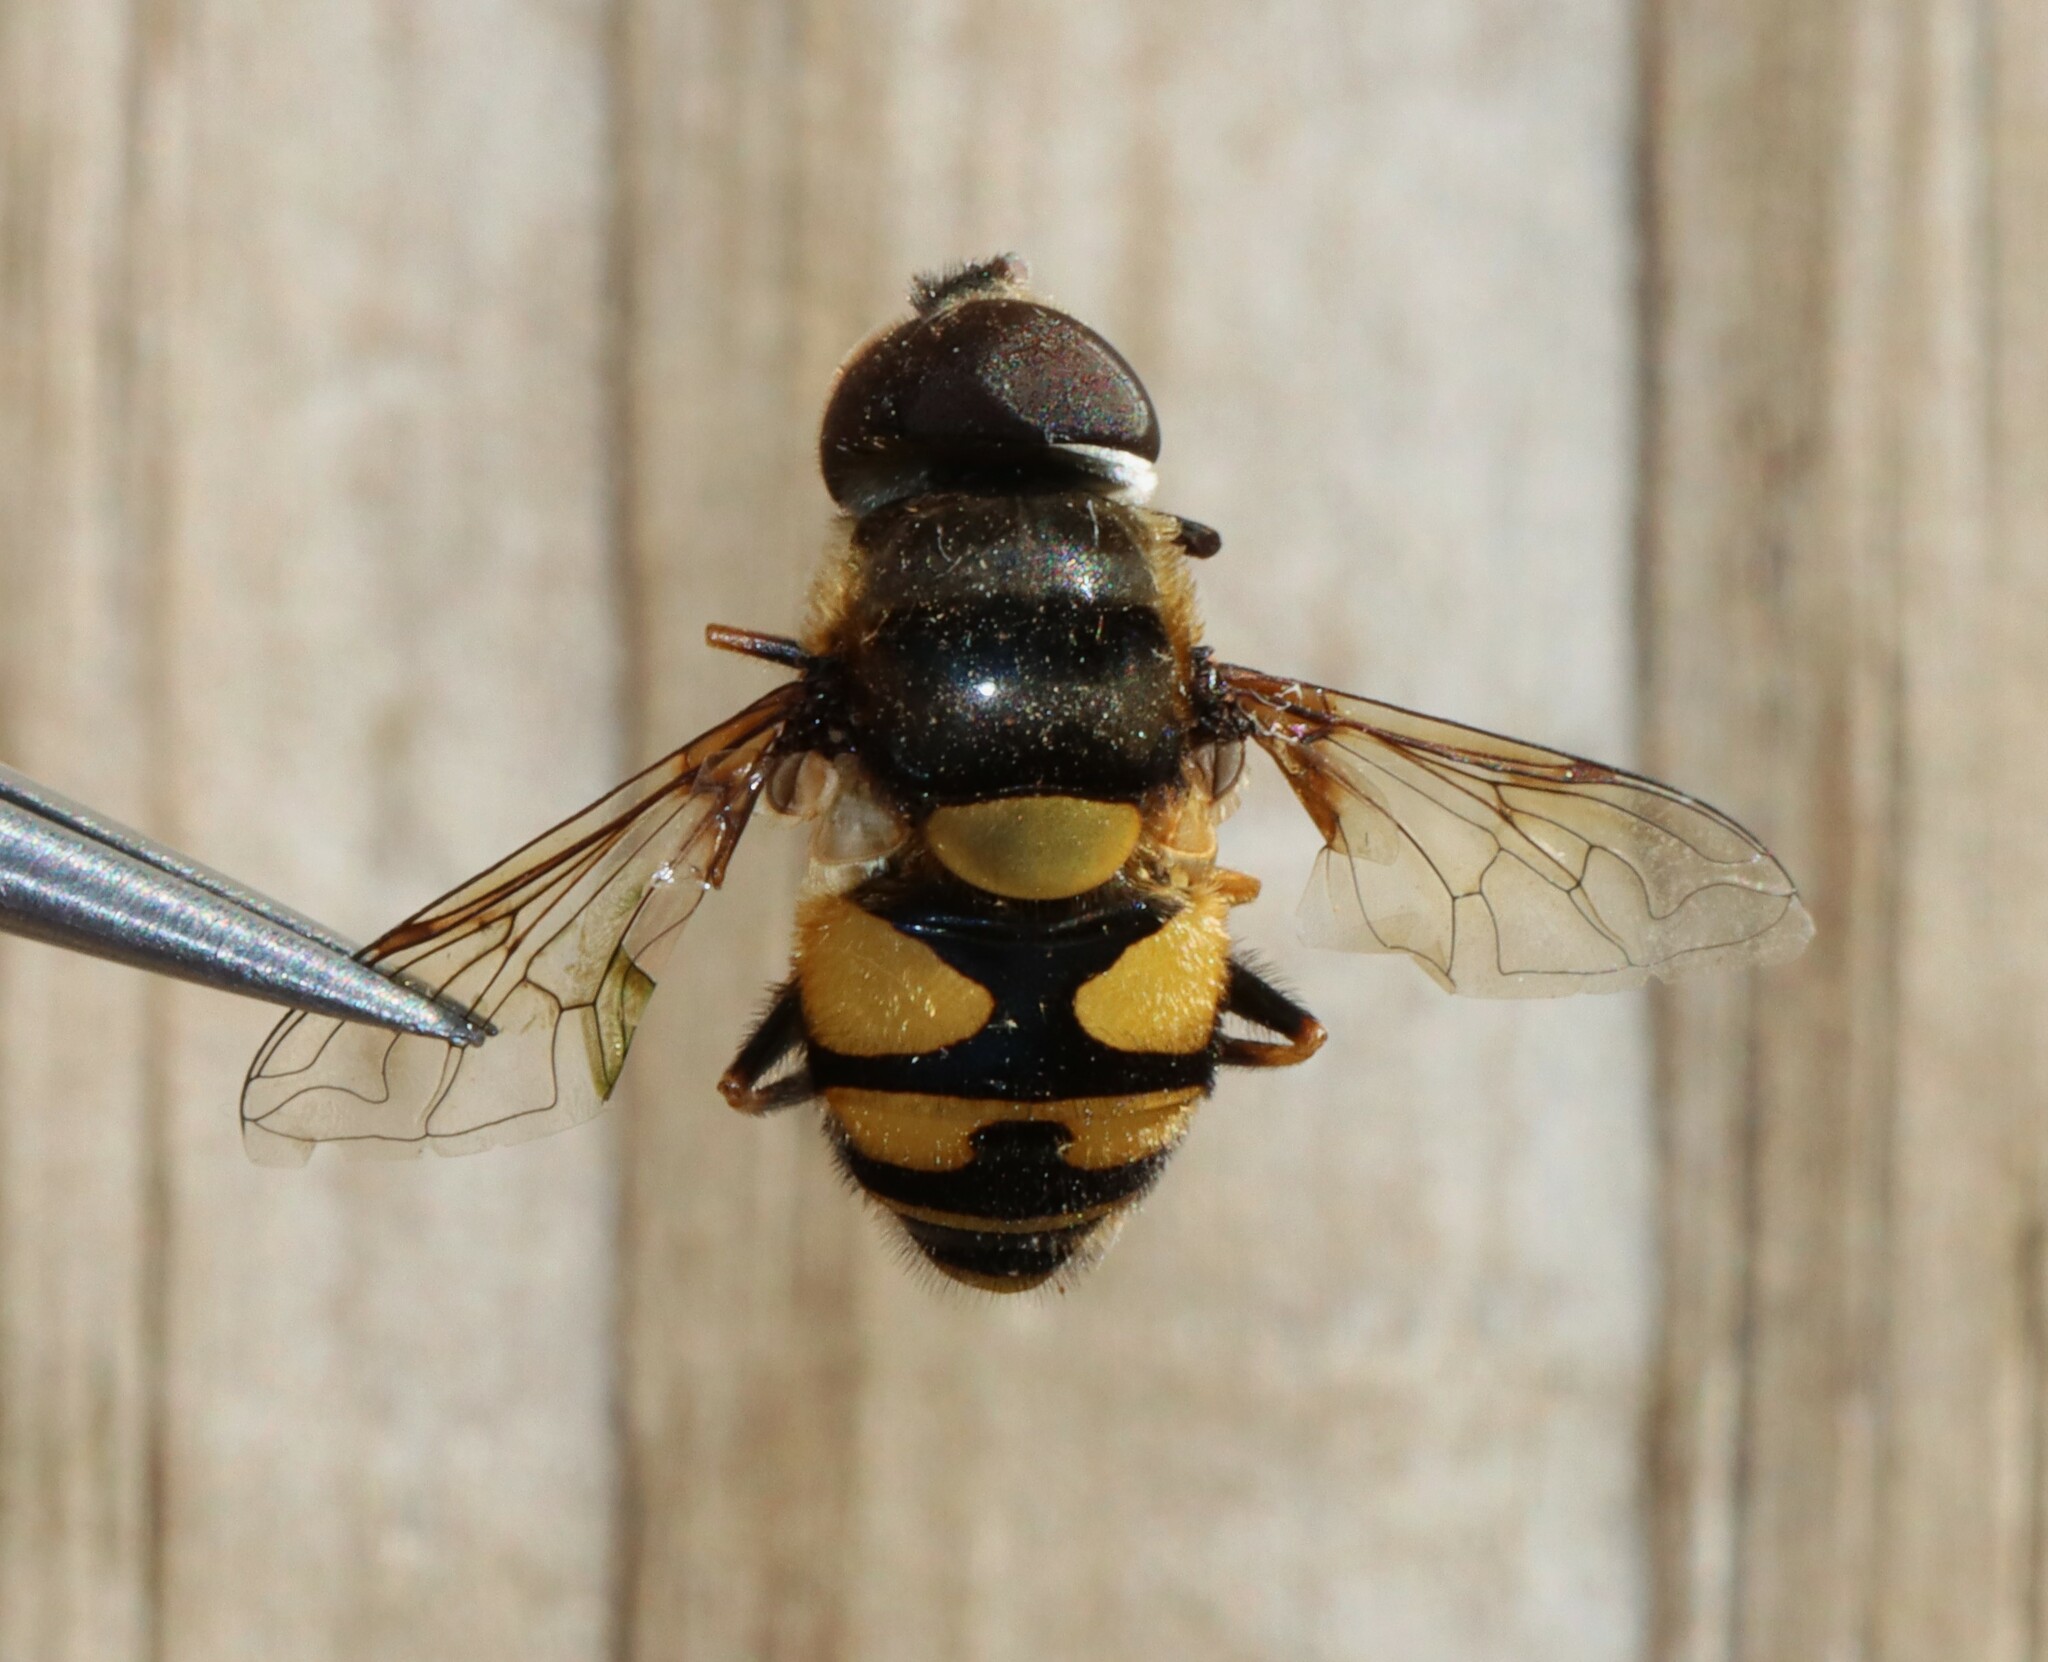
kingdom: Animalia
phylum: Arthropoda
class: Insecta
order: Diptera
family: Syrphidae
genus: Eristalis
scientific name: Eristalis transversa
